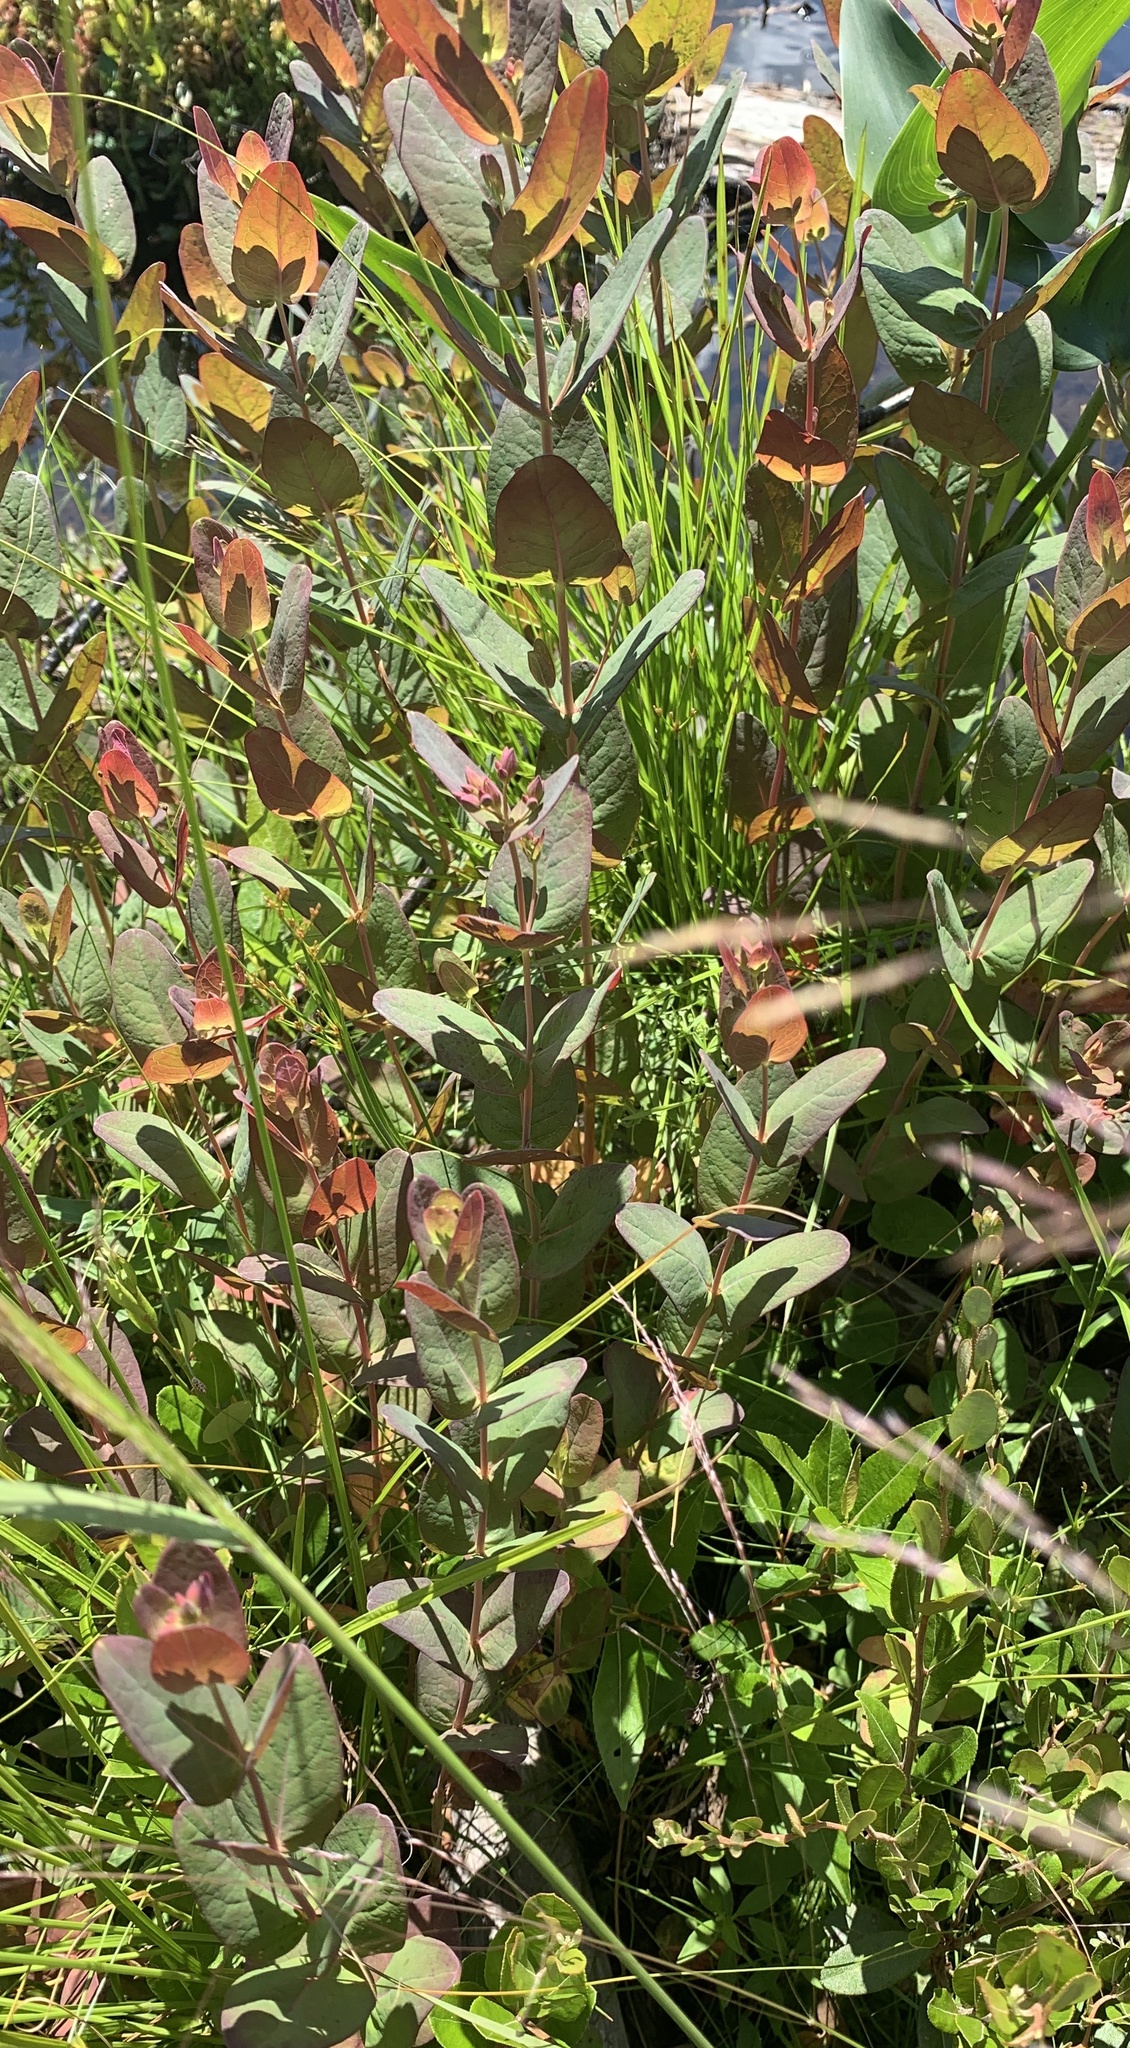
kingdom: Plantae
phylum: Tracheophyta
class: Magnoliopsida
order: Malpighiales
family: Hypericaceae
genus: Triadenum
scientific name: Triadenum fraseri
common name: Fraser's marsh st. johnswort
